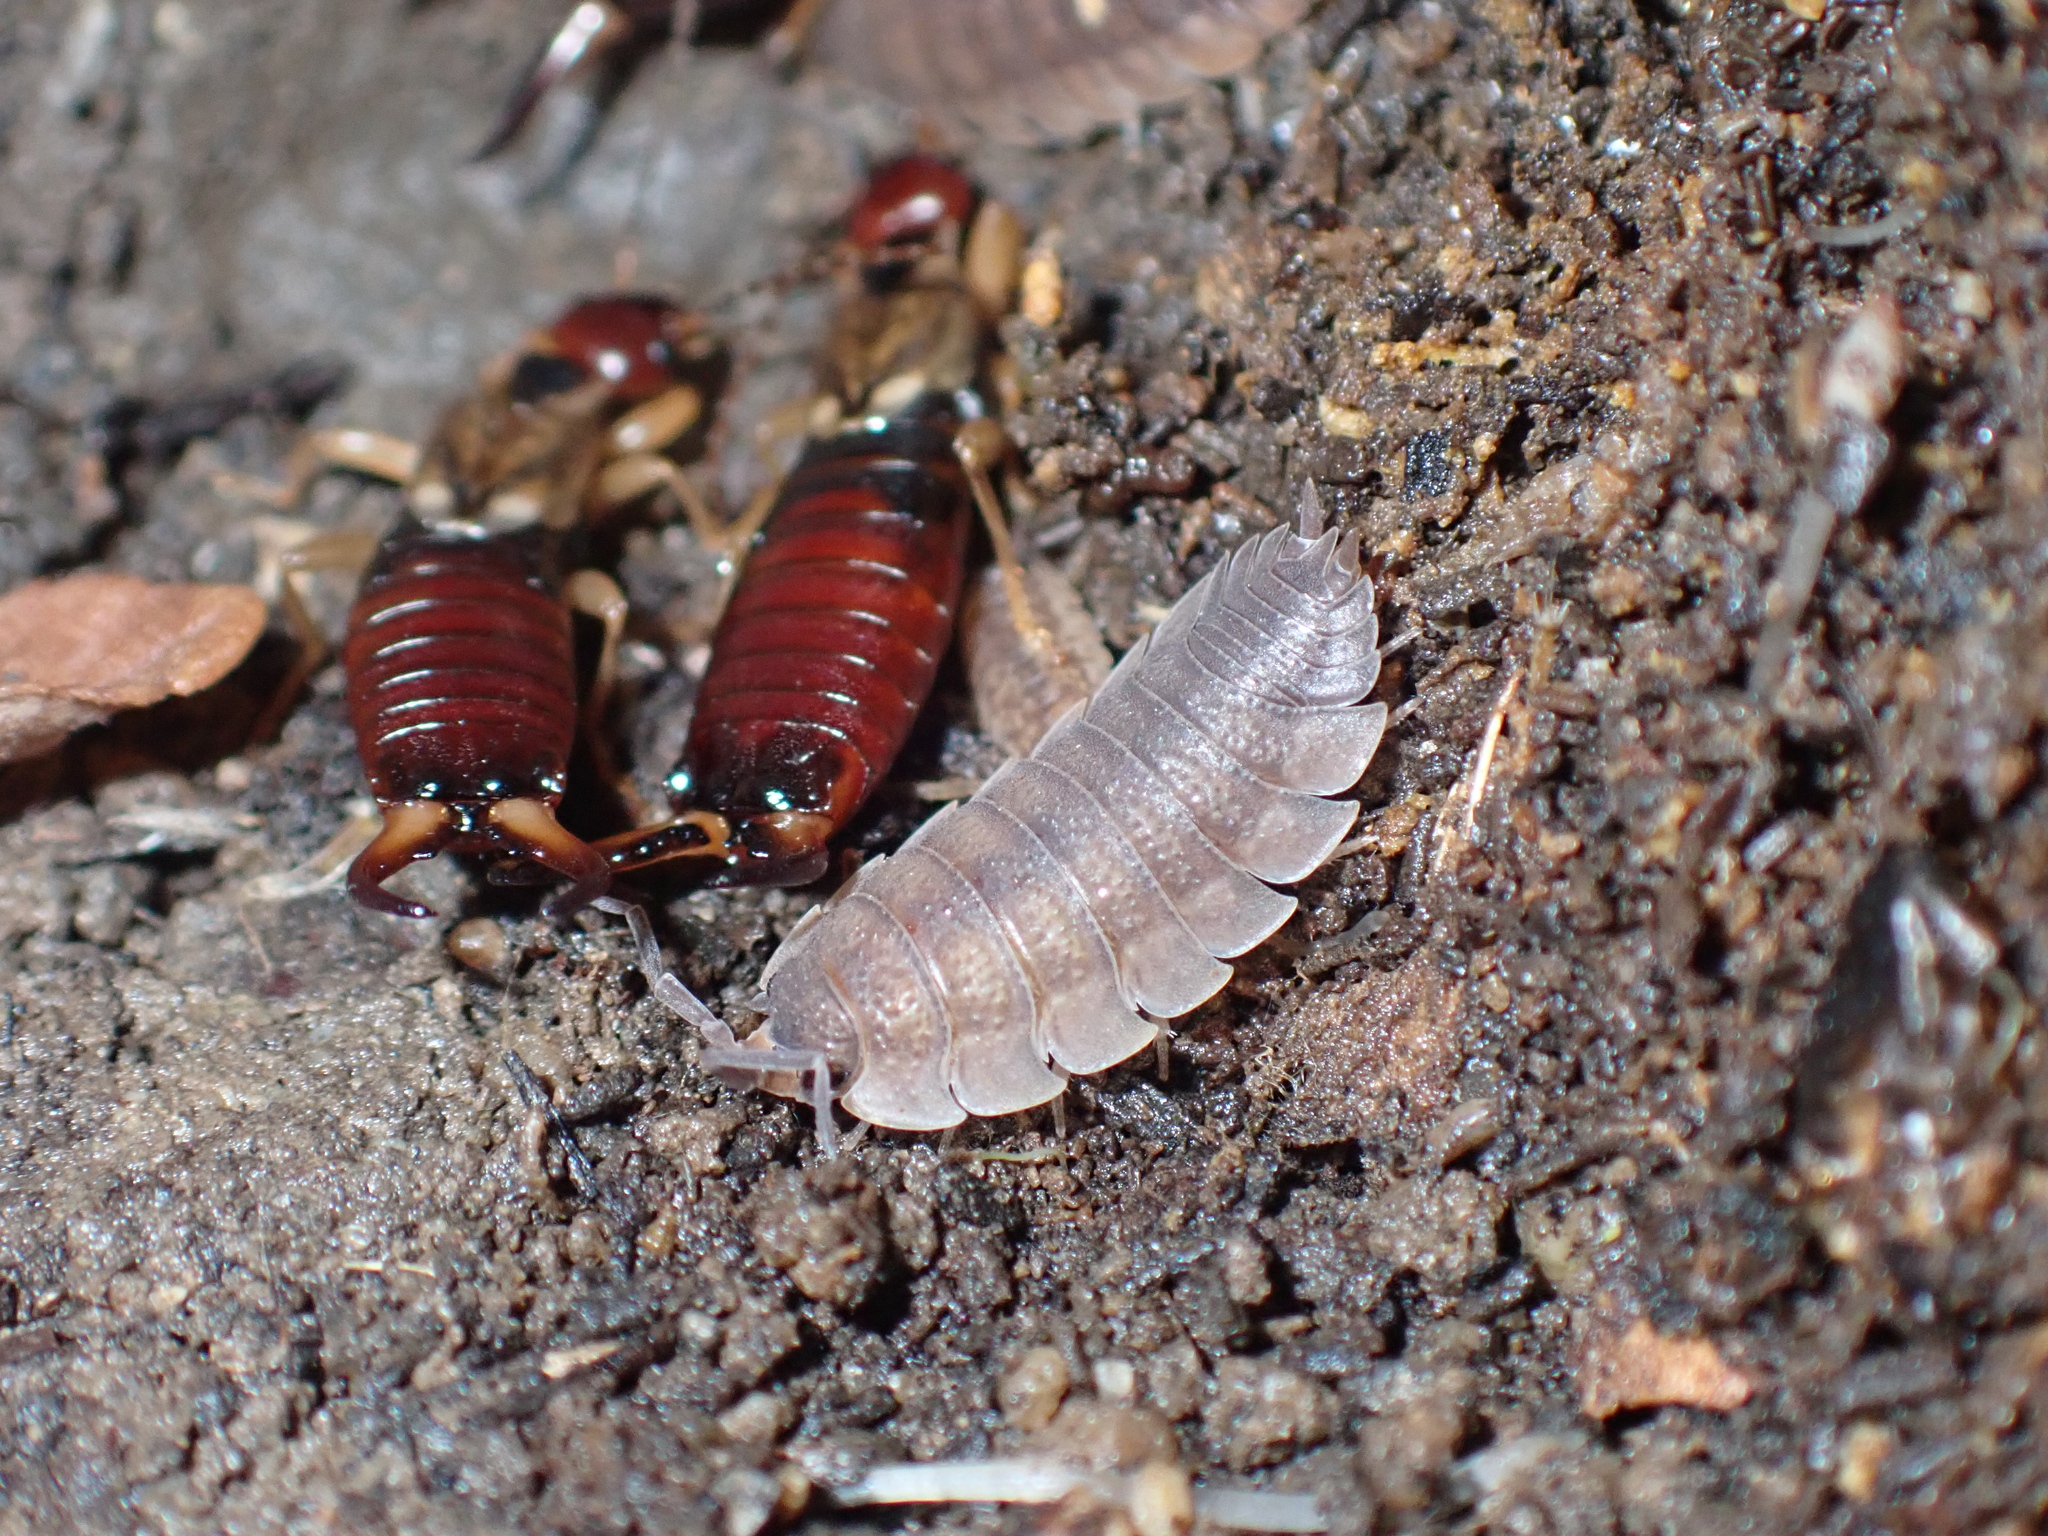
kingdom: Animalia
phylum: Arthropoda
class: Malacostraca
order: Isopoda
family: Porcellionidae
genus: Porcellio
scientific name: Porcellio scaber
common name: Common rough woodlouse
